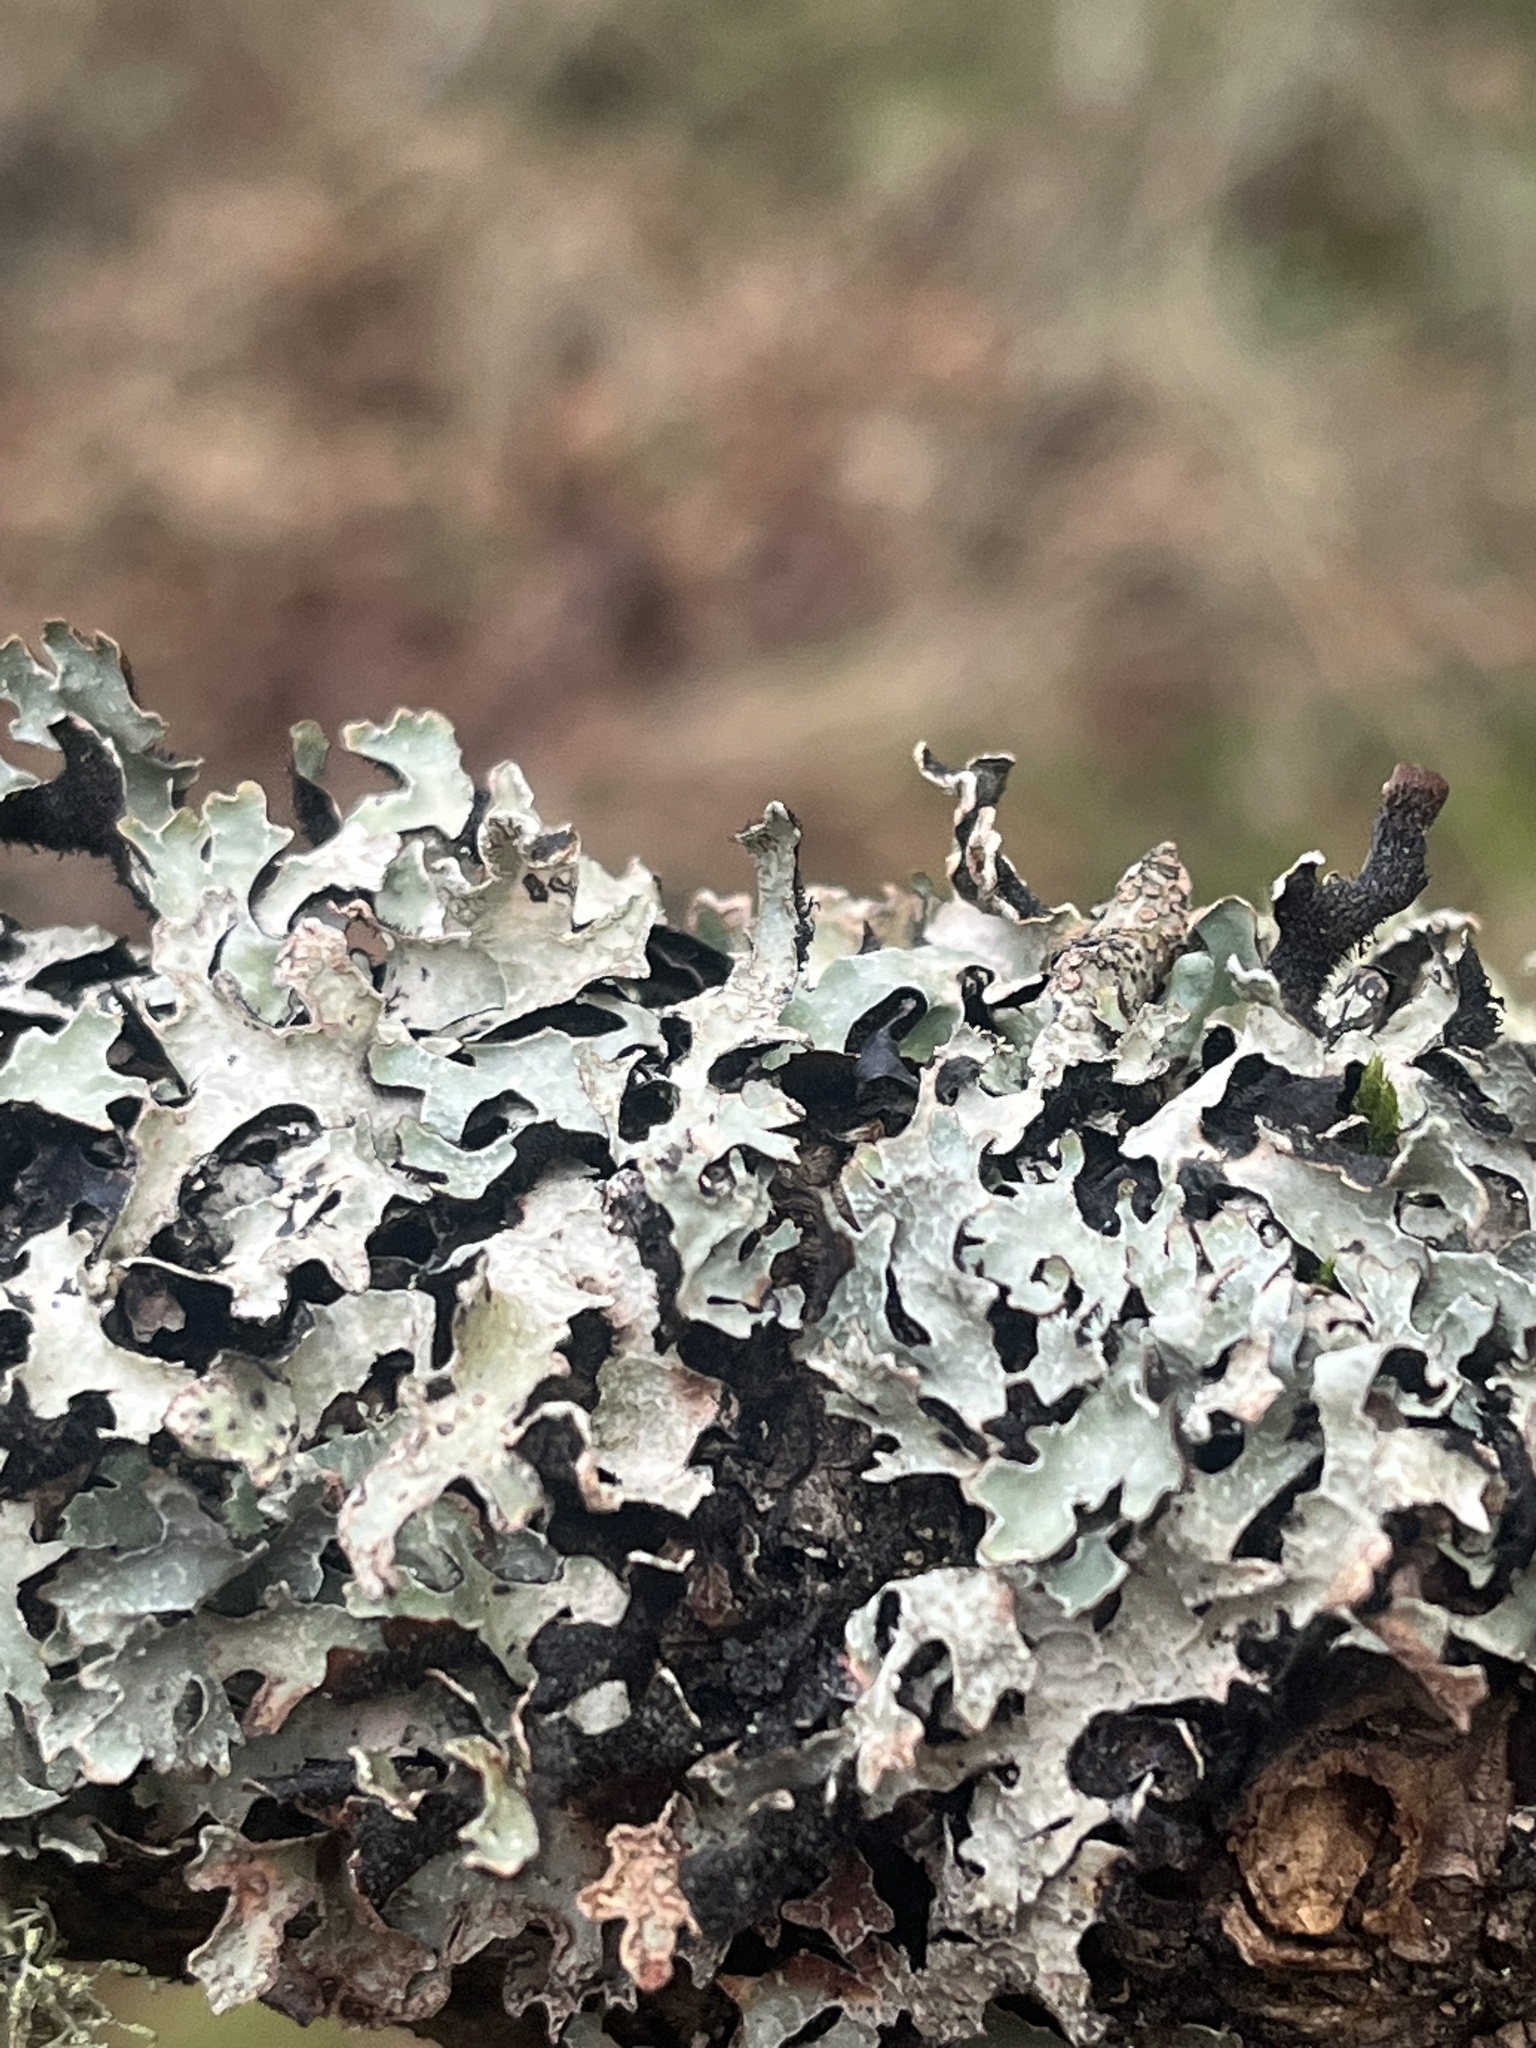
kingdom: Fungi
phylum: Ascomycota
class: Lecanoromycetes
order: Lecanorales
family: Parmeliaceae
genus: Parmelia
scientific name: Parmelia sulcata
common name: Netted shield lichen
